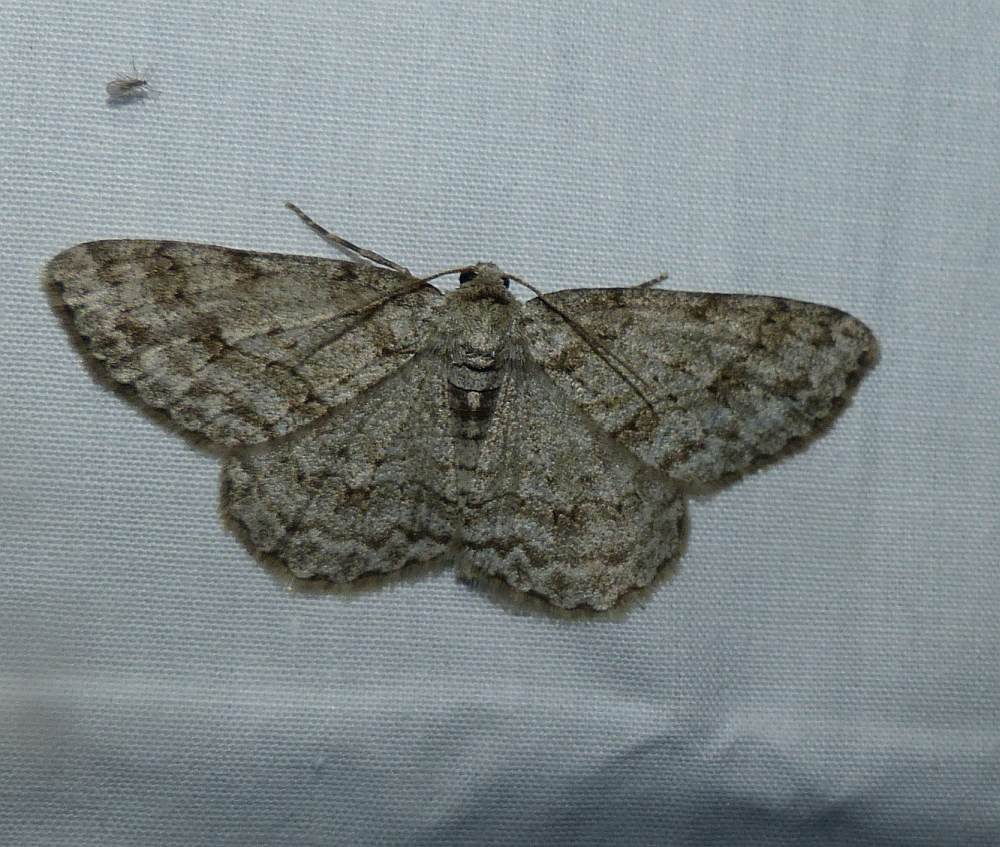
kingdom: Animalia
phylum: Arthropoda
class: Insecta
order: Lepidoptera
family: Geometridae
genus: Ectropis
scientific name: Ectropis crepuscularia
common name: Engrailed
